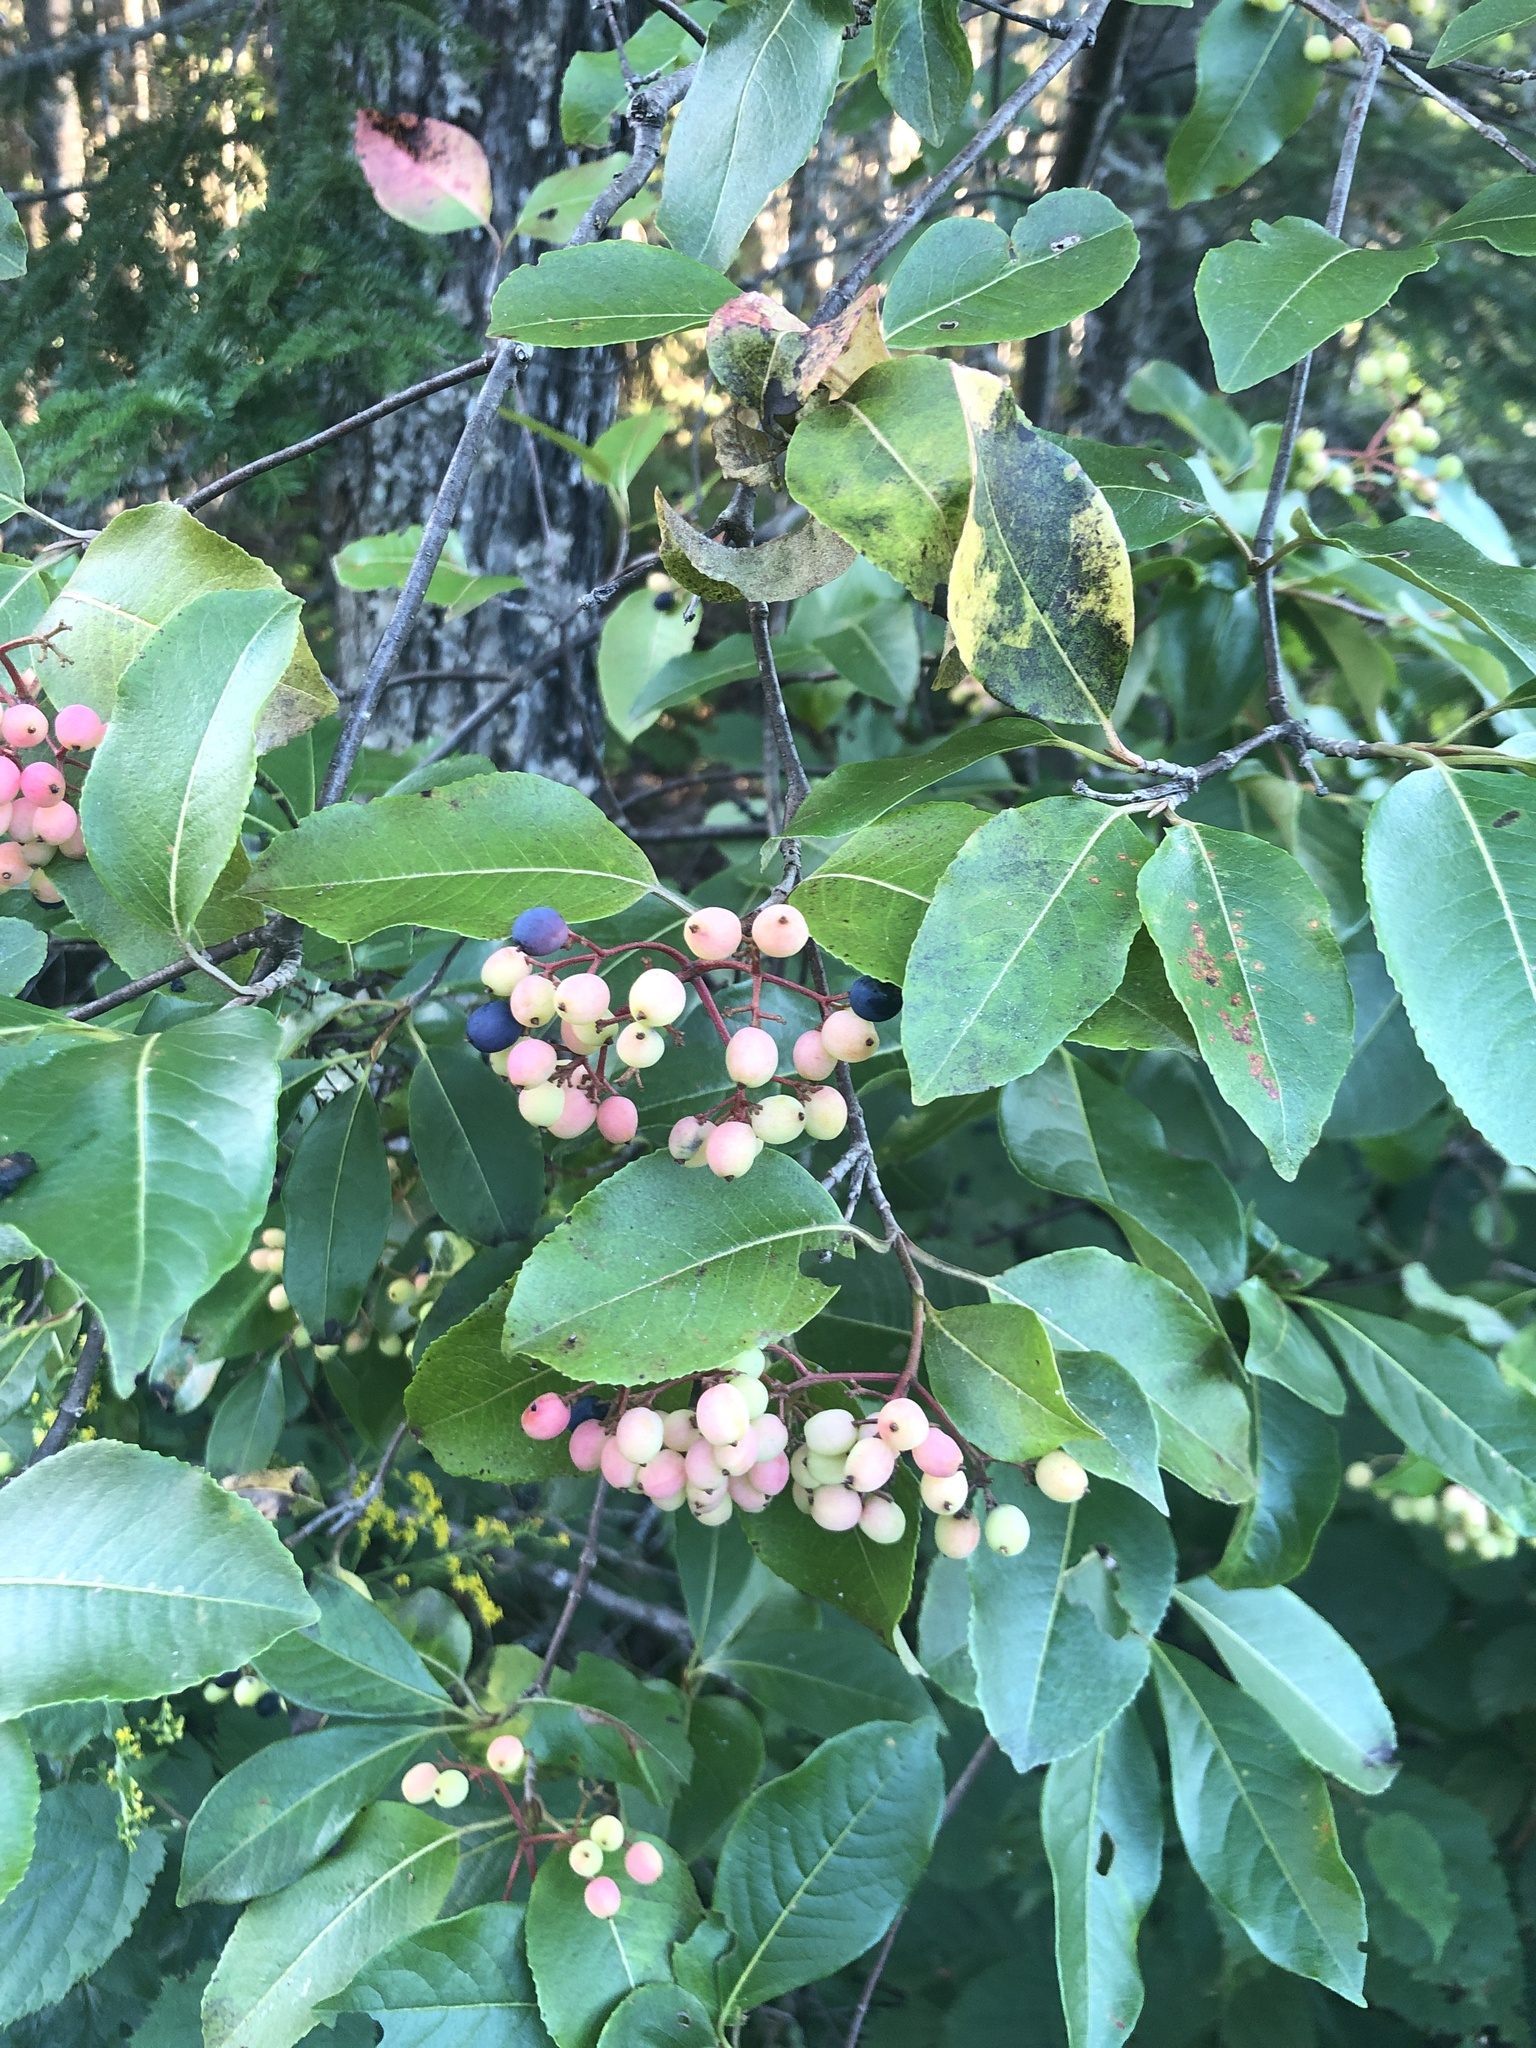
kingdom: Plantae
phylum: Tracheophyta
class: Magnoliopsida
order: Dipsacales
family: Viburnaceae
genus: Viburnum
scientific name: Viburnum cassinoides
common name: Swamp haw
